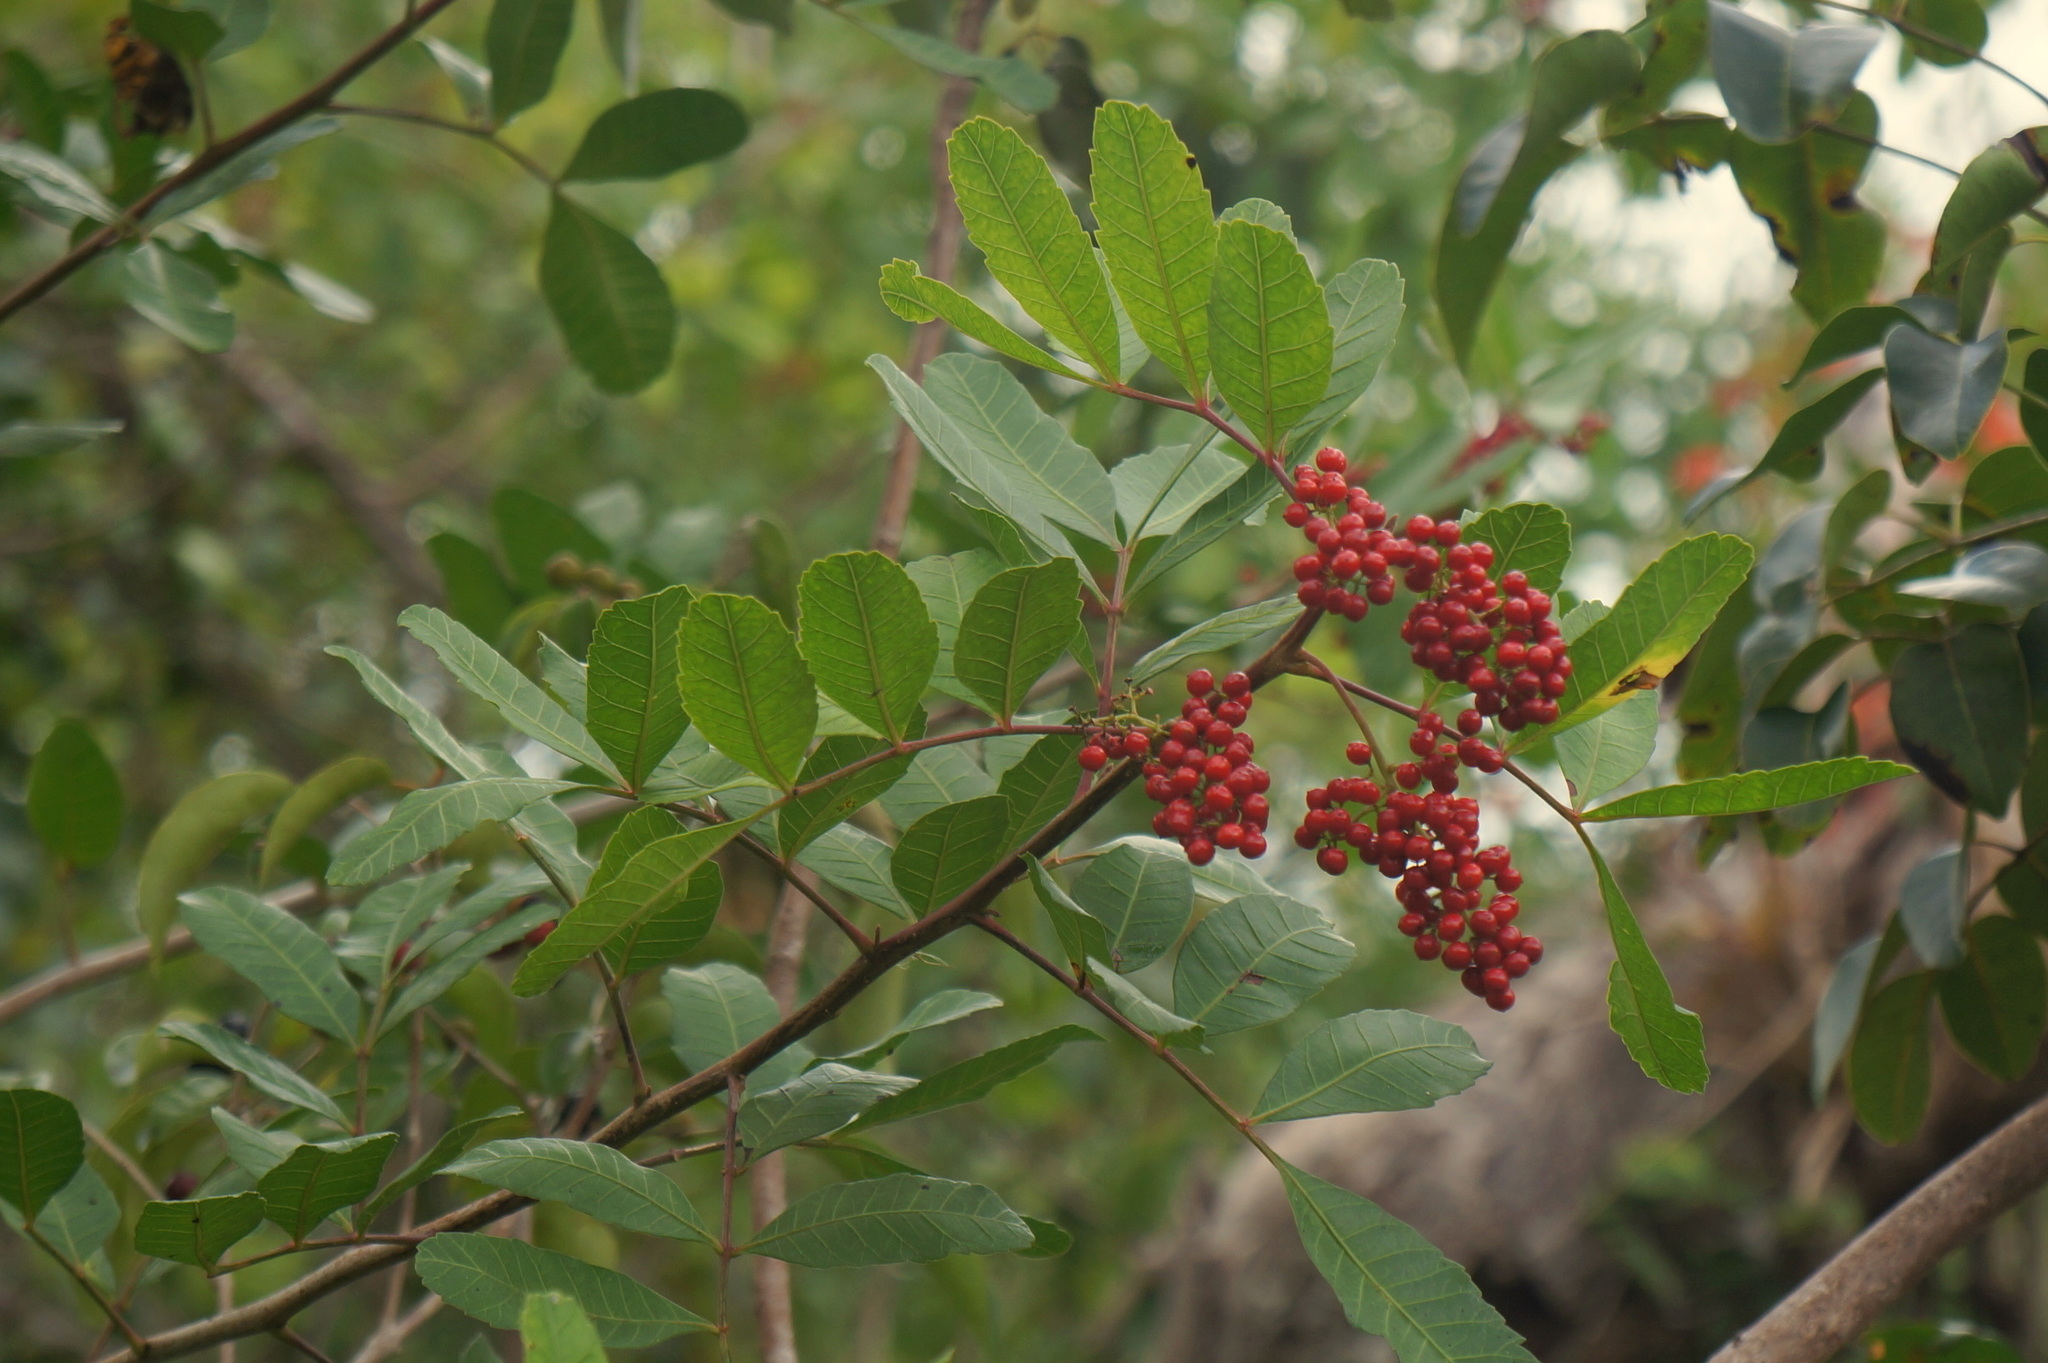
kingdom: Plantae
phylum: Tracheophyta
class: Magnoliopsida
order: Sapindales
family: Anacardiaceae
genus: Schinus
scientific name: Schinus terebinthifolia
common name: Brazilian peppertree
